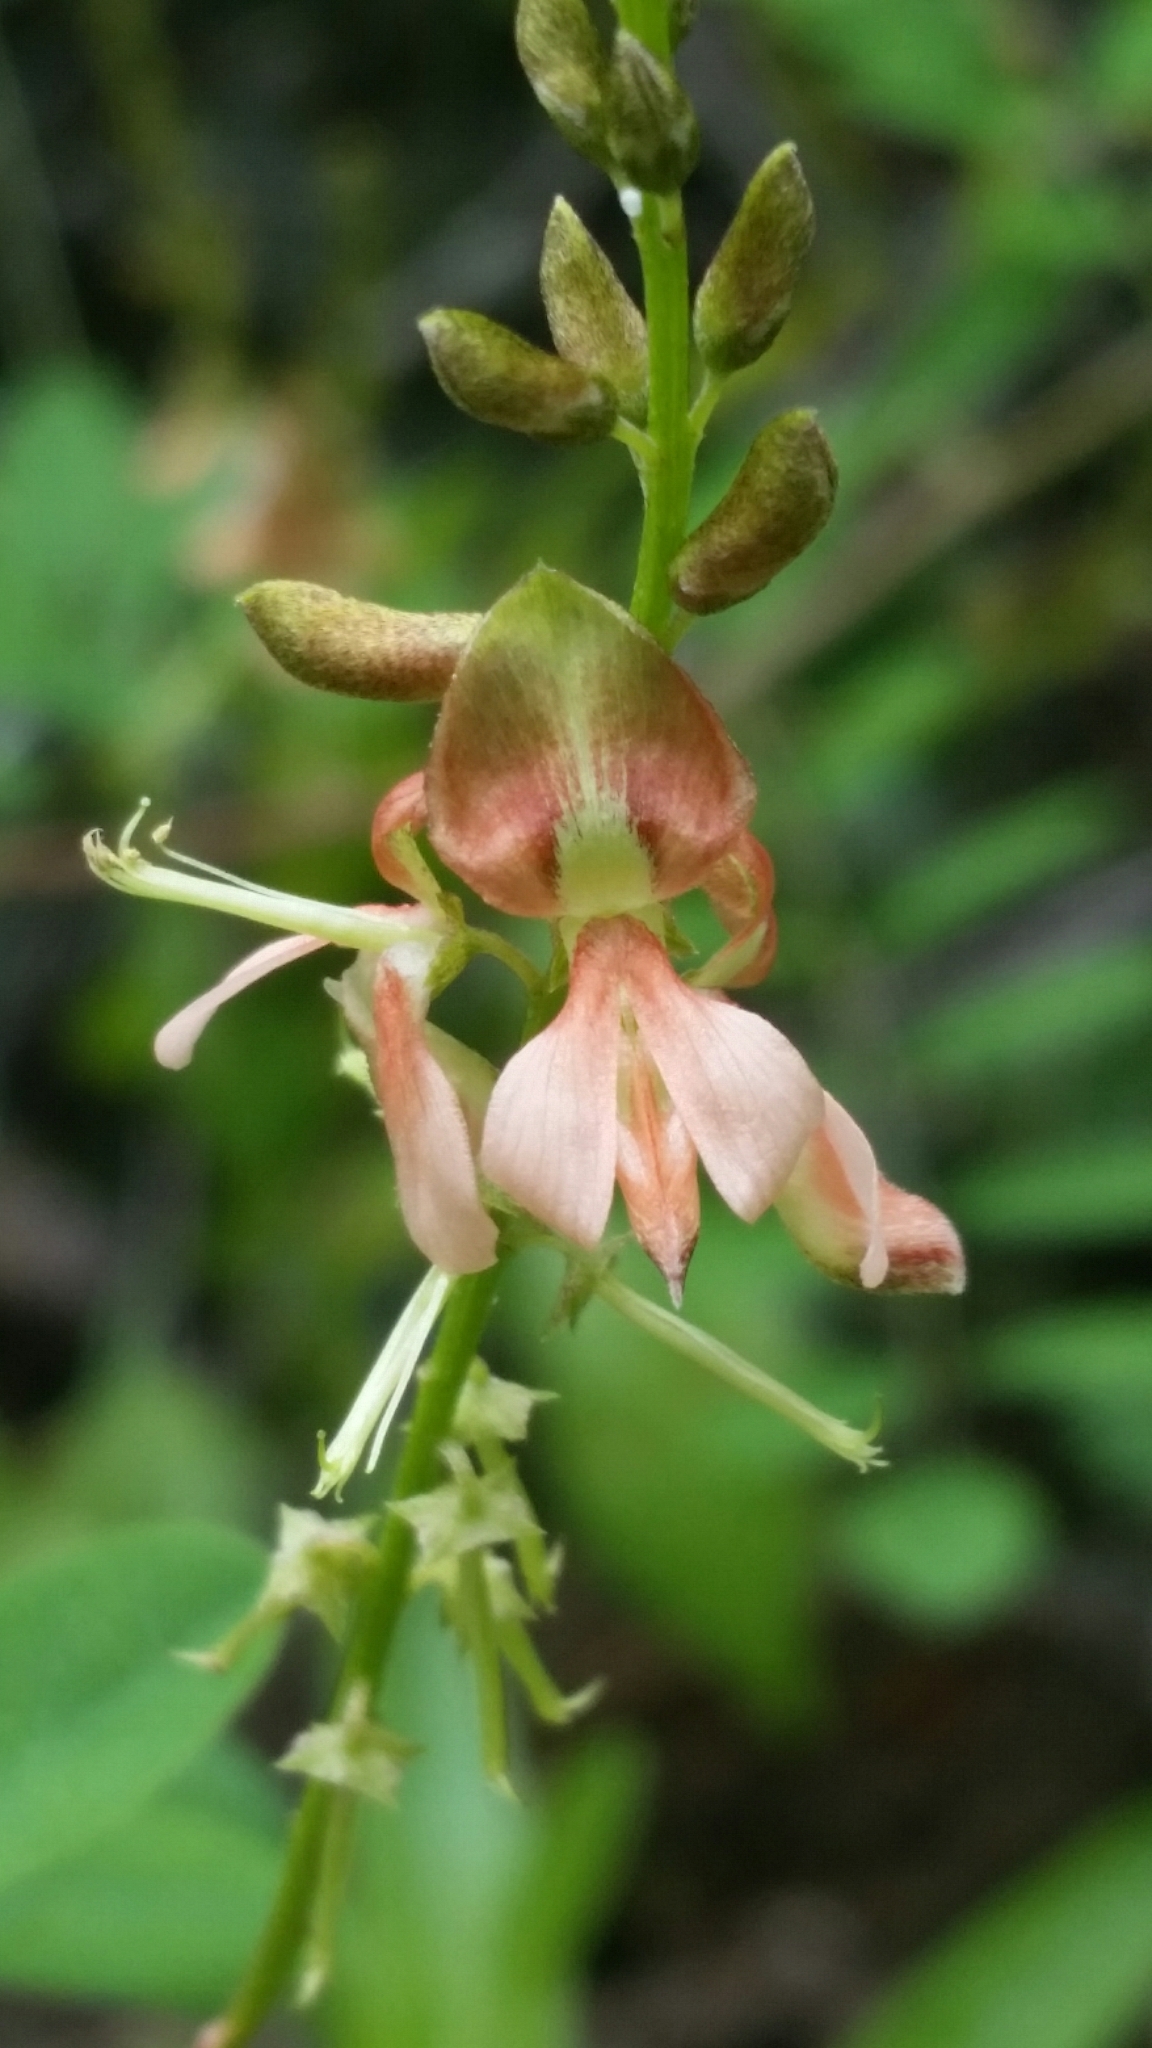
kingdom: Plantae
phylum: Tracheophyta
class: Magnoliopsida
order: Fabales
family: Fabaceae
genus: Indigofera
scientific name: Indigofera caroliniana
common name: Wild indigo
